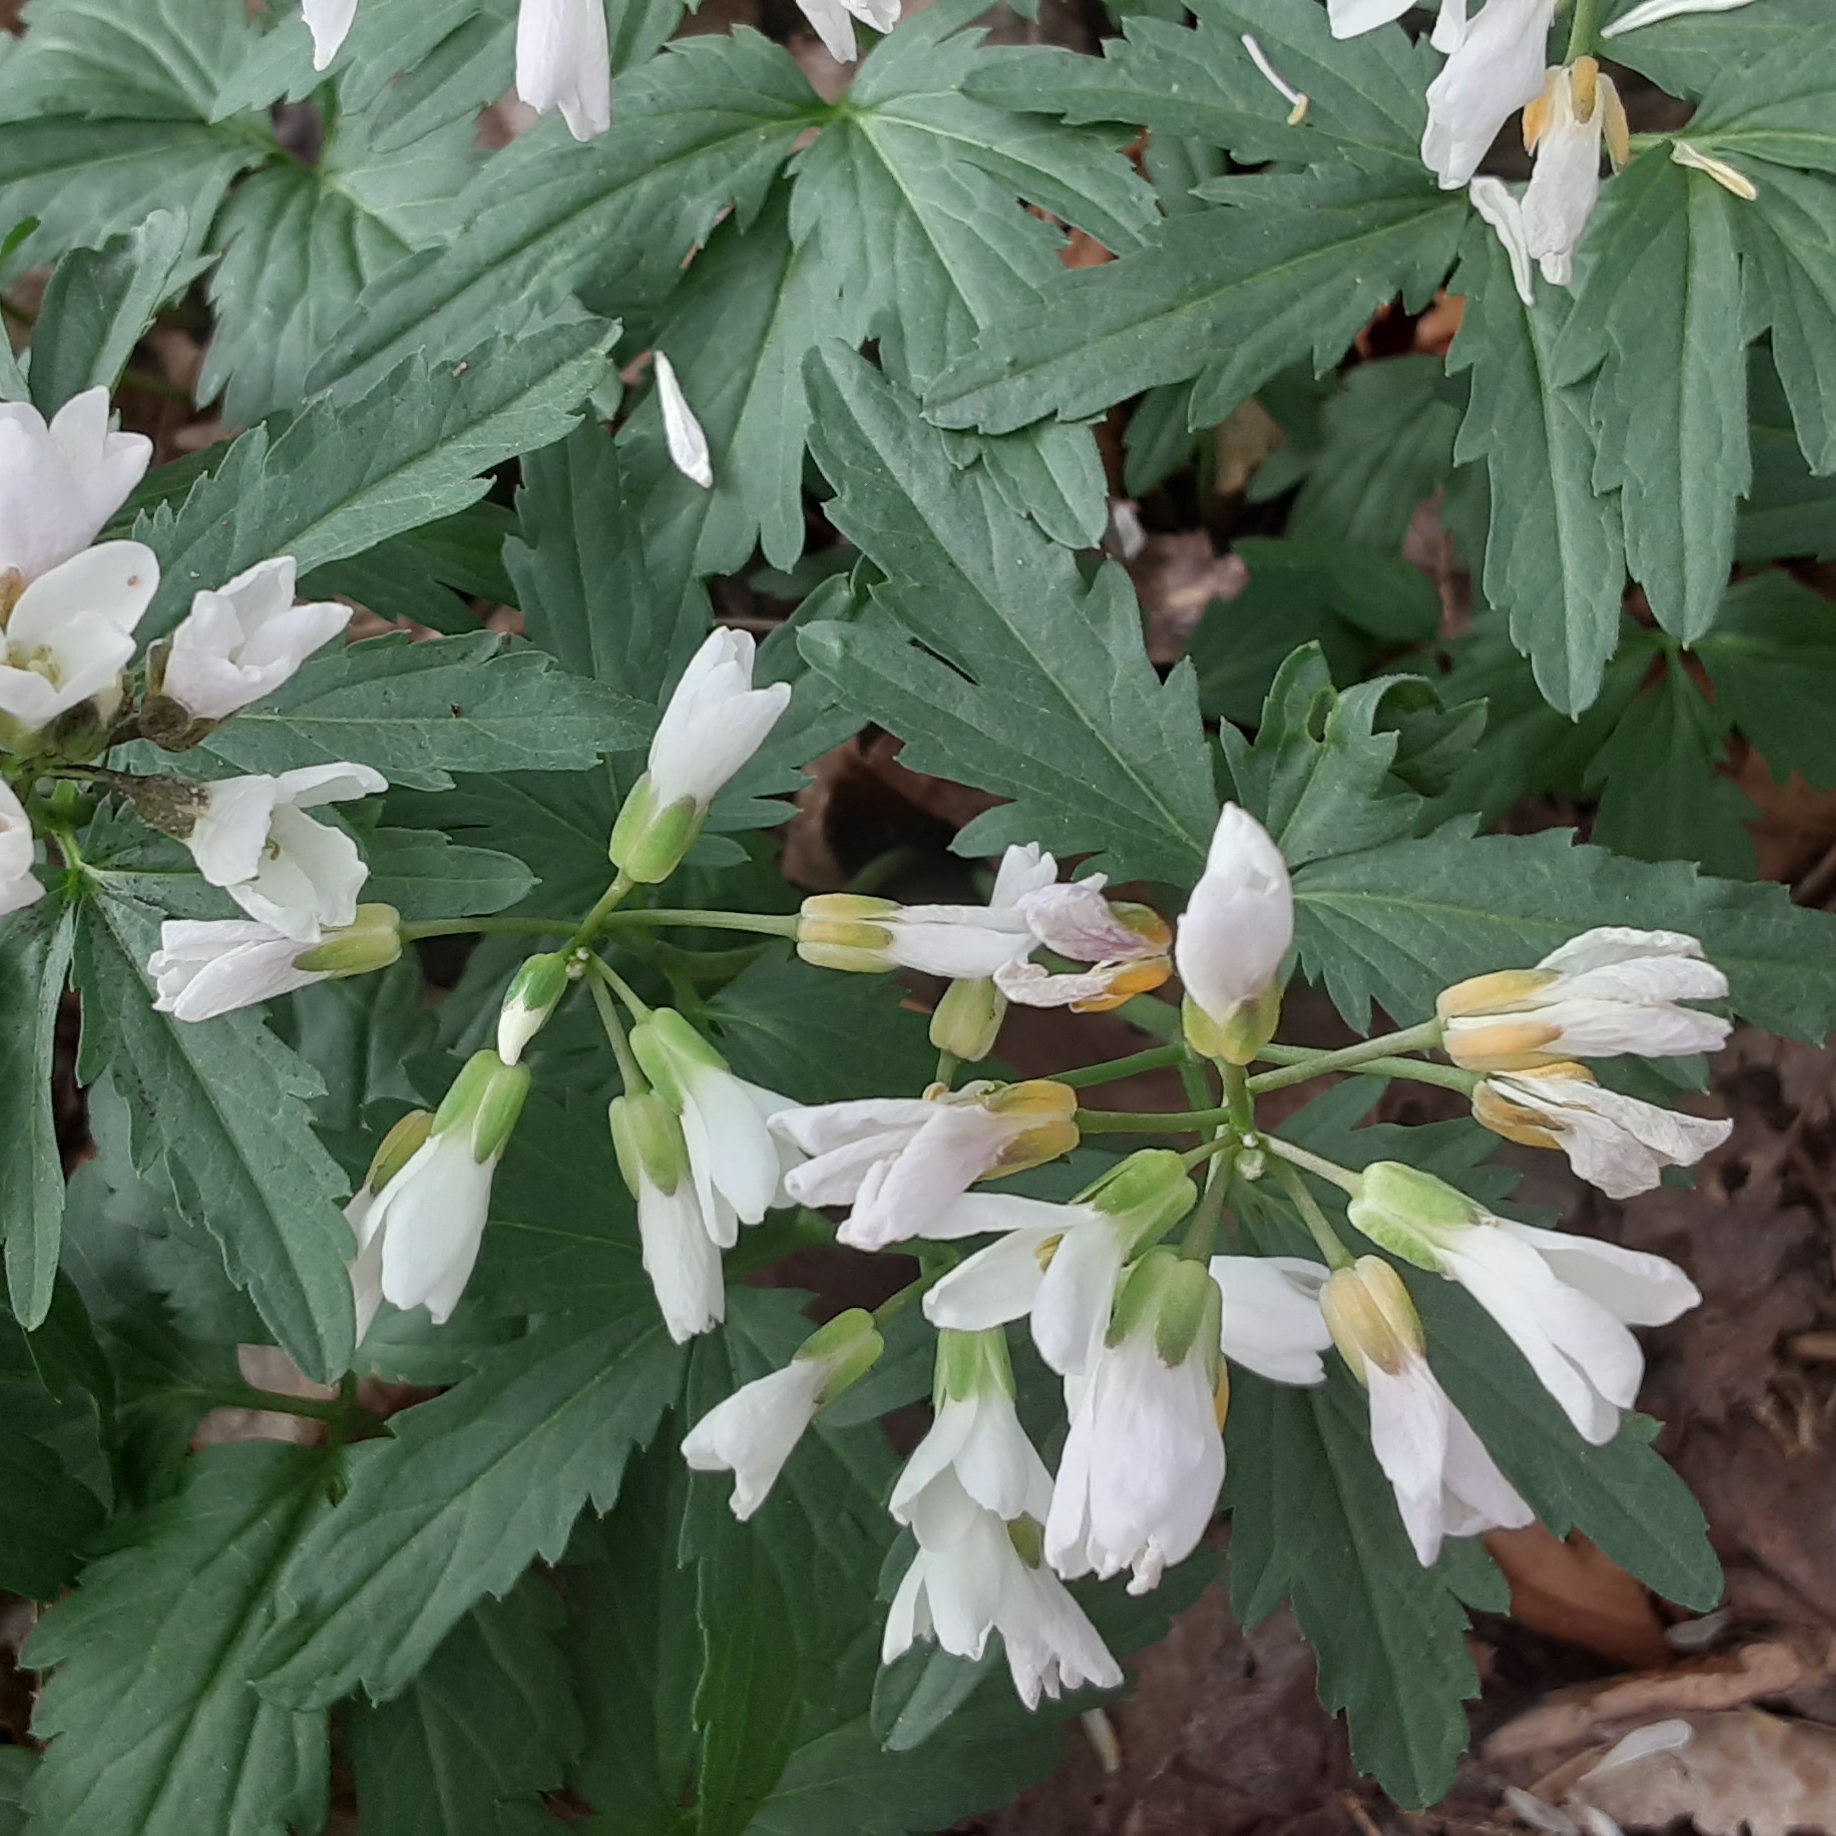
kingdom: Plantae
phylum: Tracheophyta
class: Magnoliopsida
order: Brassicales
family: Brassicaceae
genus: Cardamine
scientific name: Cardamine concatenata
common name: Cut-leaf toothcup
